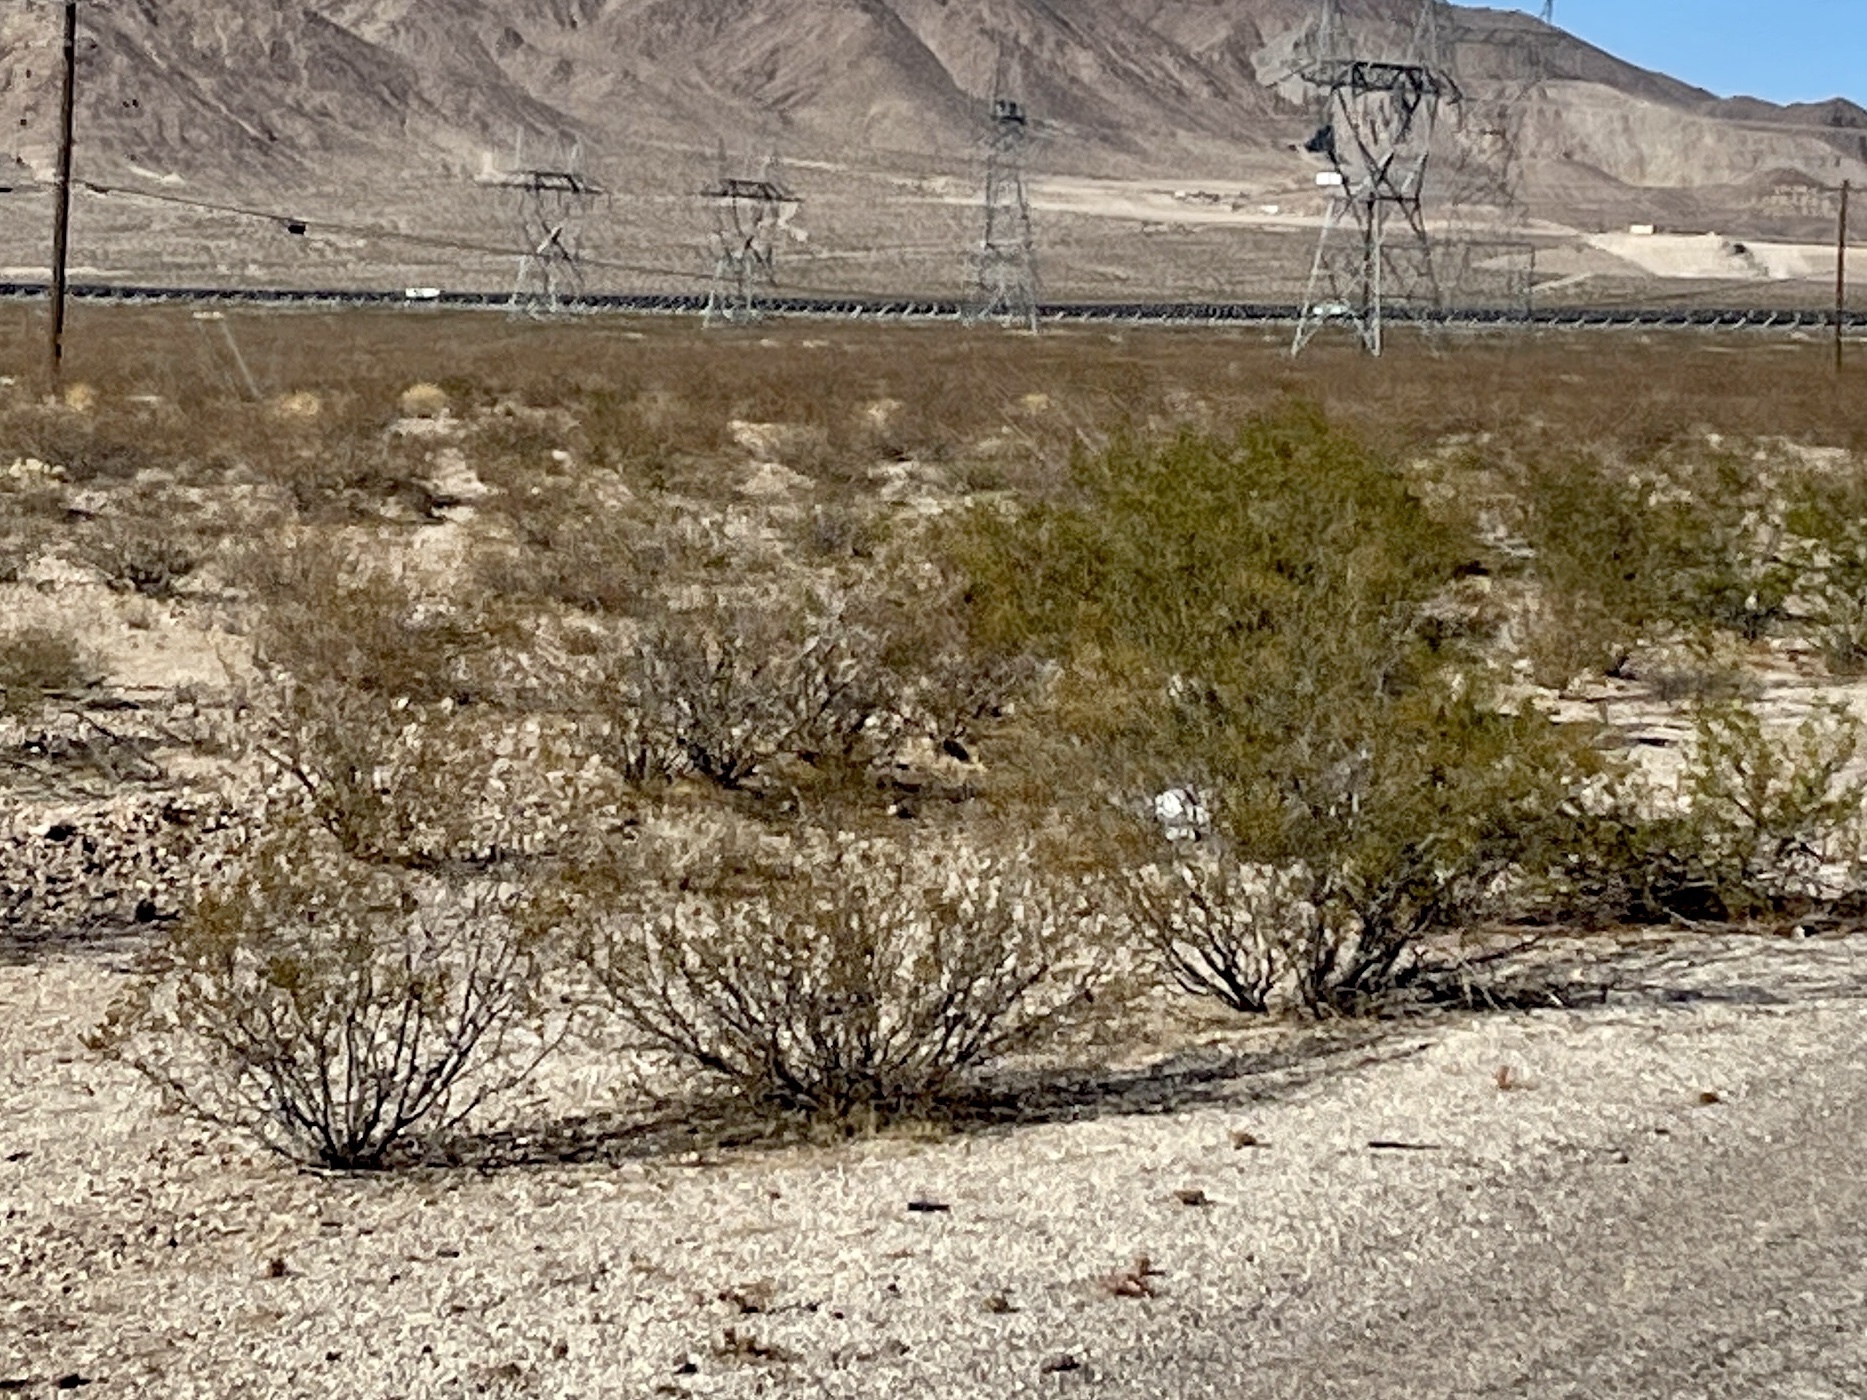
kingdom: Plantae
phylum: Tracheophyta
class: Magnoliopsida
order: Zygophyllales
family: Zygophyllaceae
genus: Larrea
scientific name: Larrea tridentata
